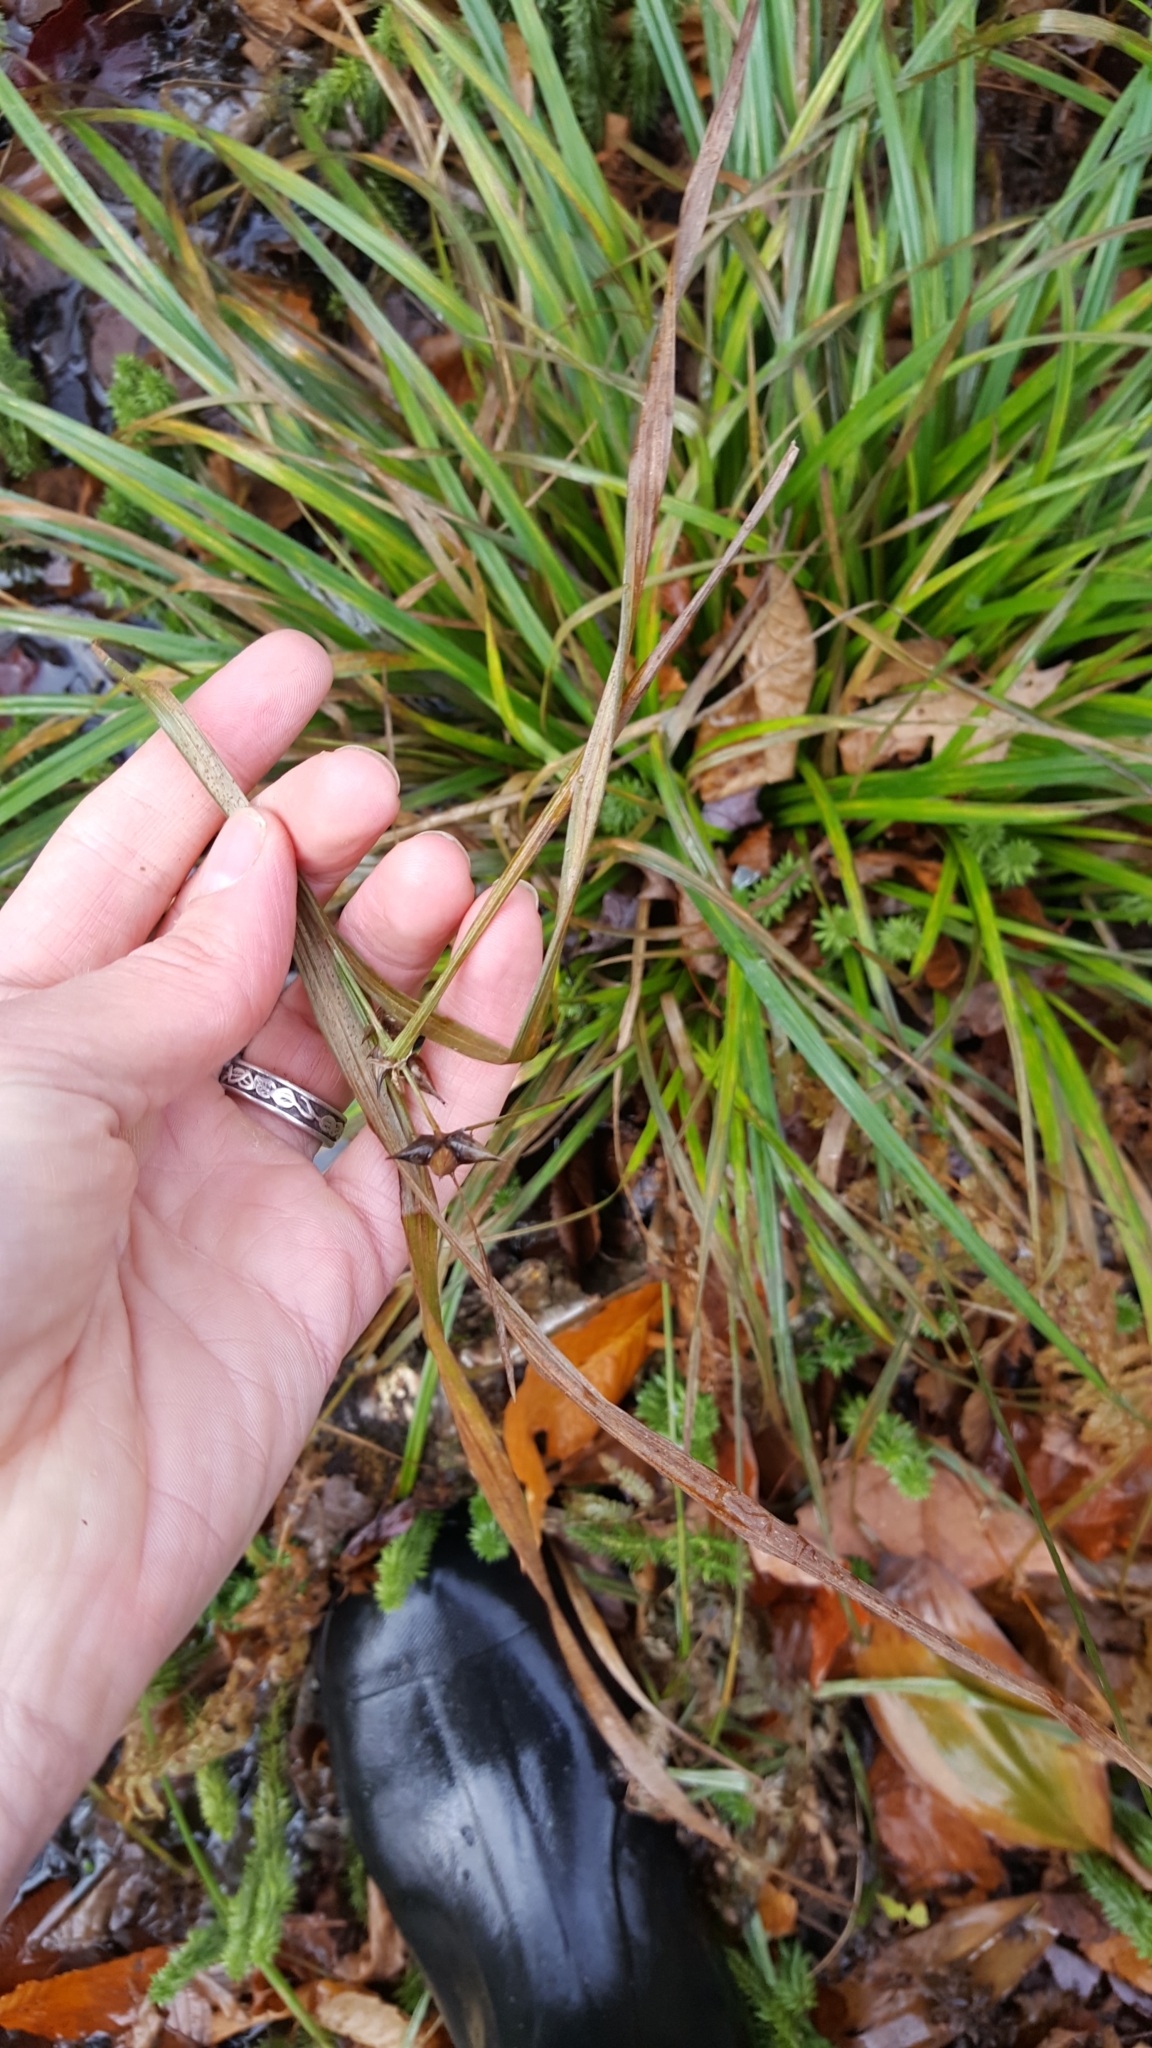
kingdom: Plantae
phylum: Tracheophyta
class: Liliopsida
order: Poales
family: Cyperaceae
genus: Carex
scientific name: Carex intumescens
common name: Greater bladder sedge
